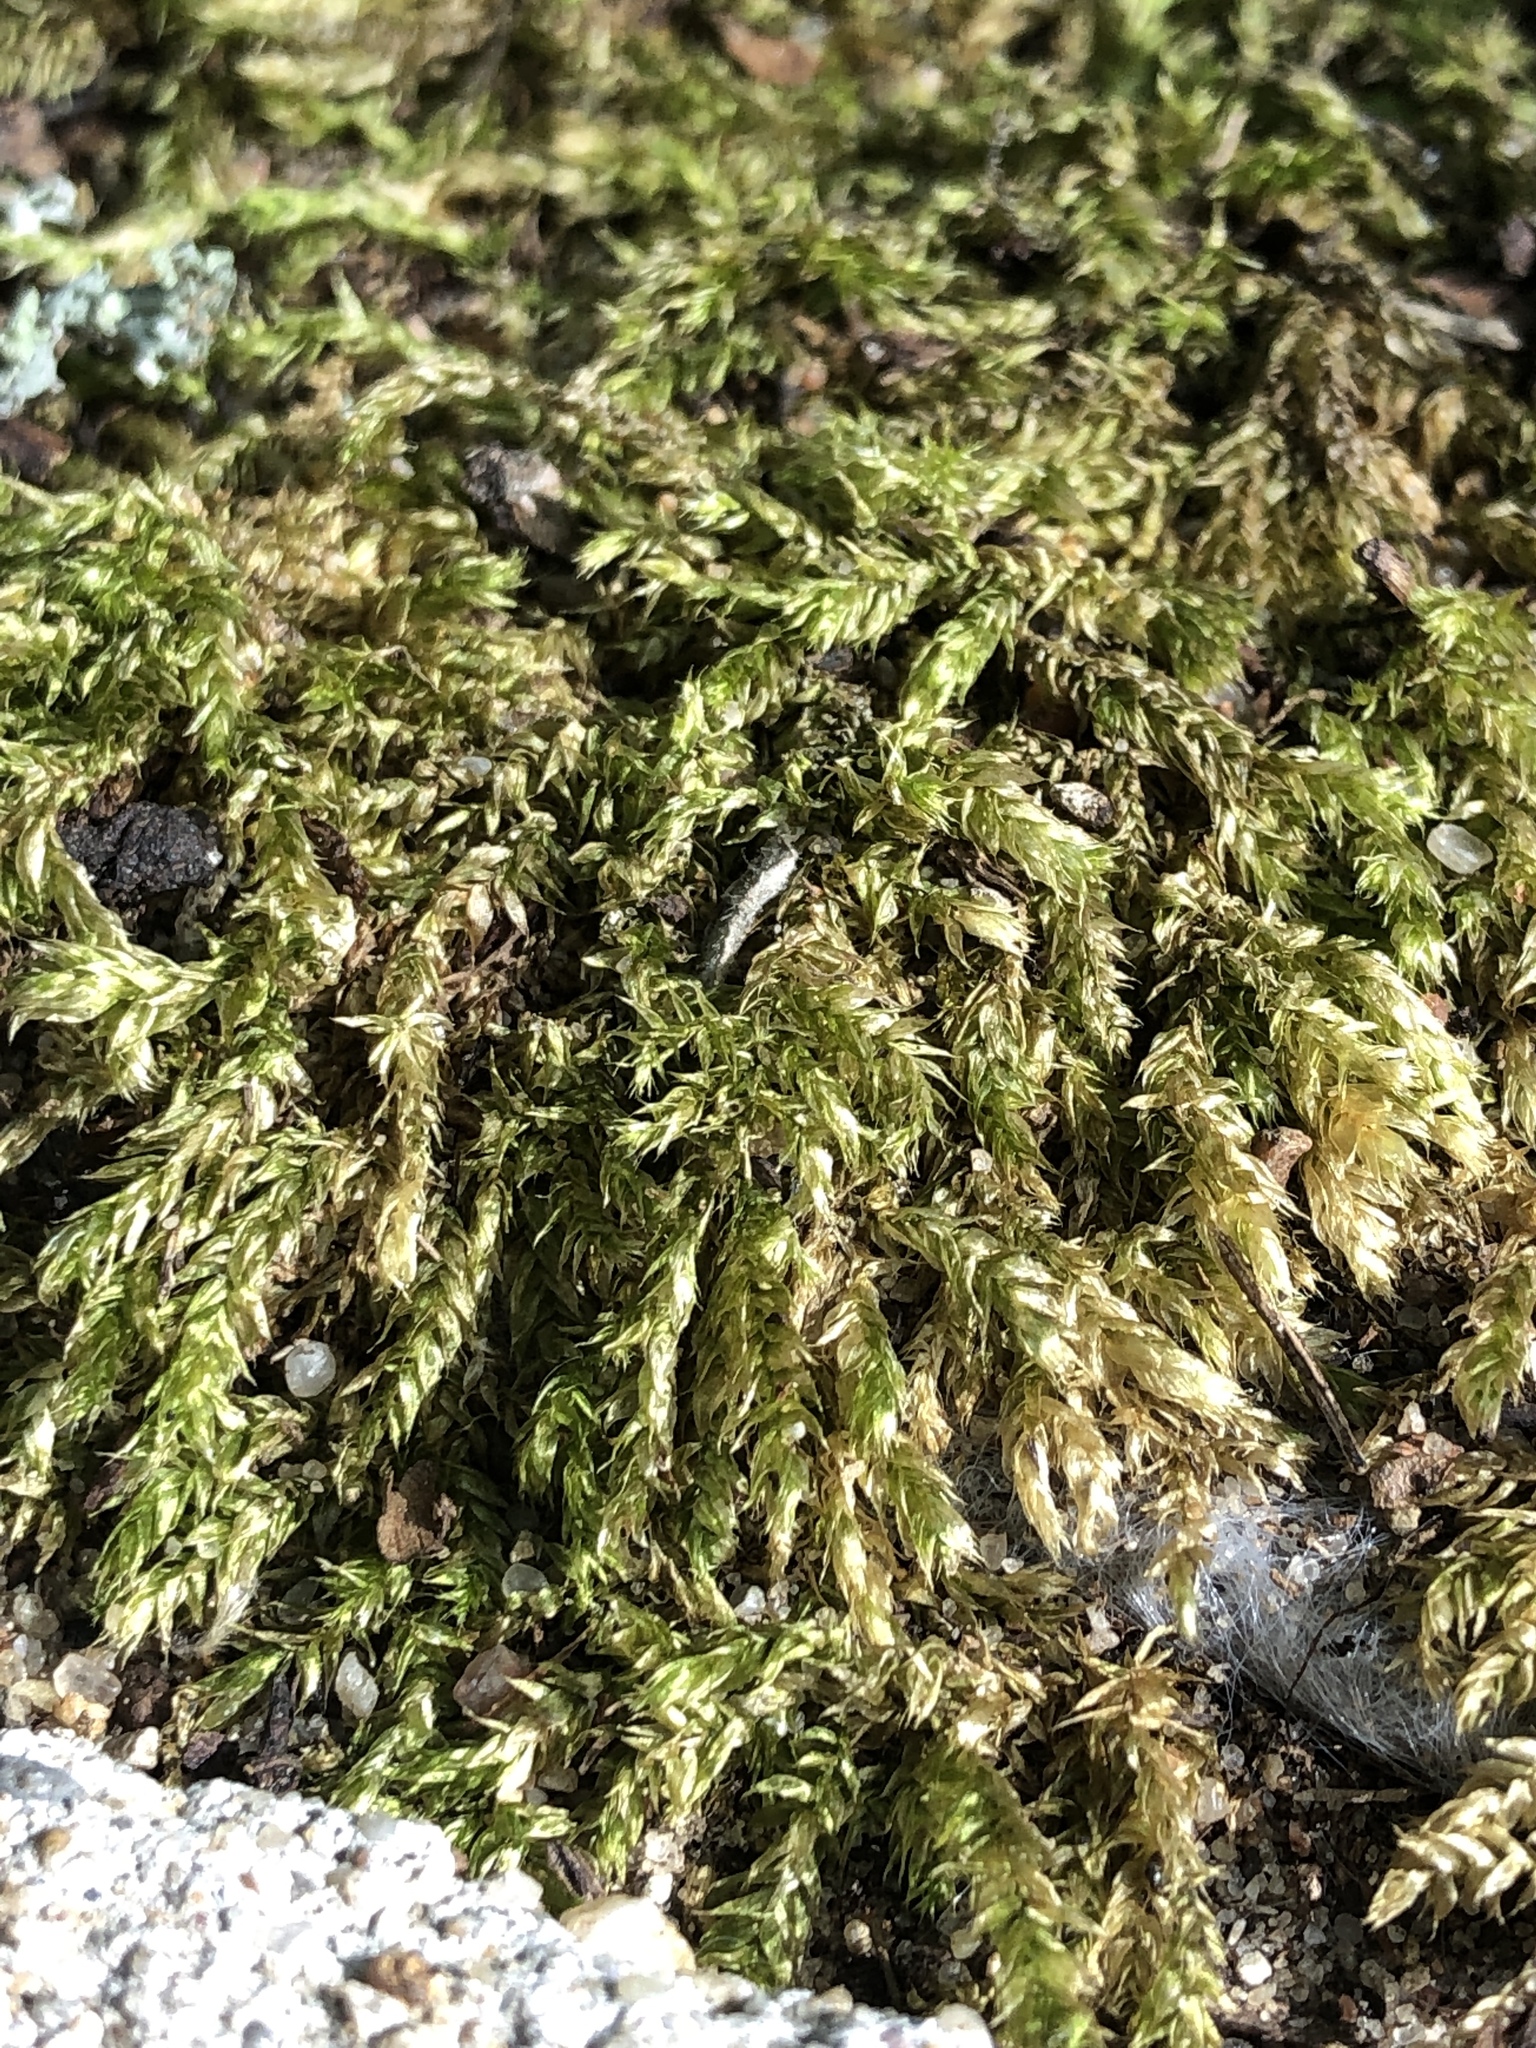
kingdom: Plantae
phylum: Bryophyta
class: Bryopsida
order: Hypnales
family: Hypnaceae
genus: Hypnum
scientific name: Hypnum cupressiforme
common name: Cypress-leaved plait-moss
